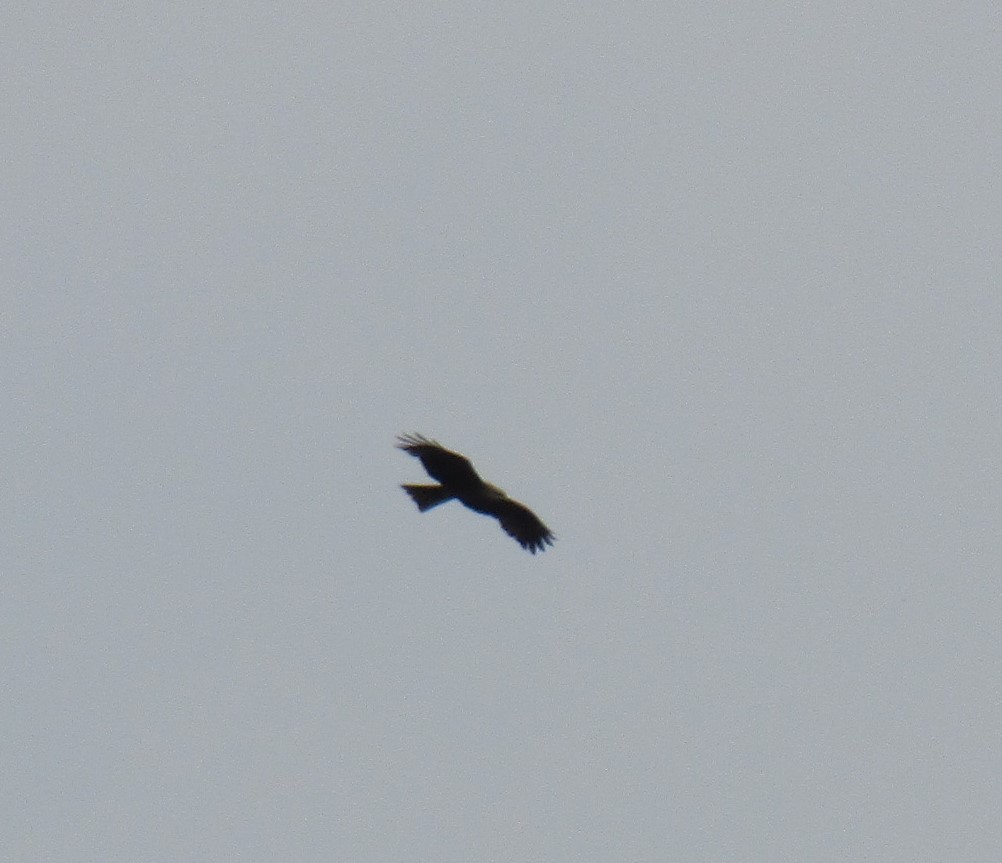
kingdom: Animalia
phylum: Chordata
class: Aves
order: Accipitriformes
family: Accipitridae
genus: Milvus
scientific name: Milvus migrans
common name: Black kite
